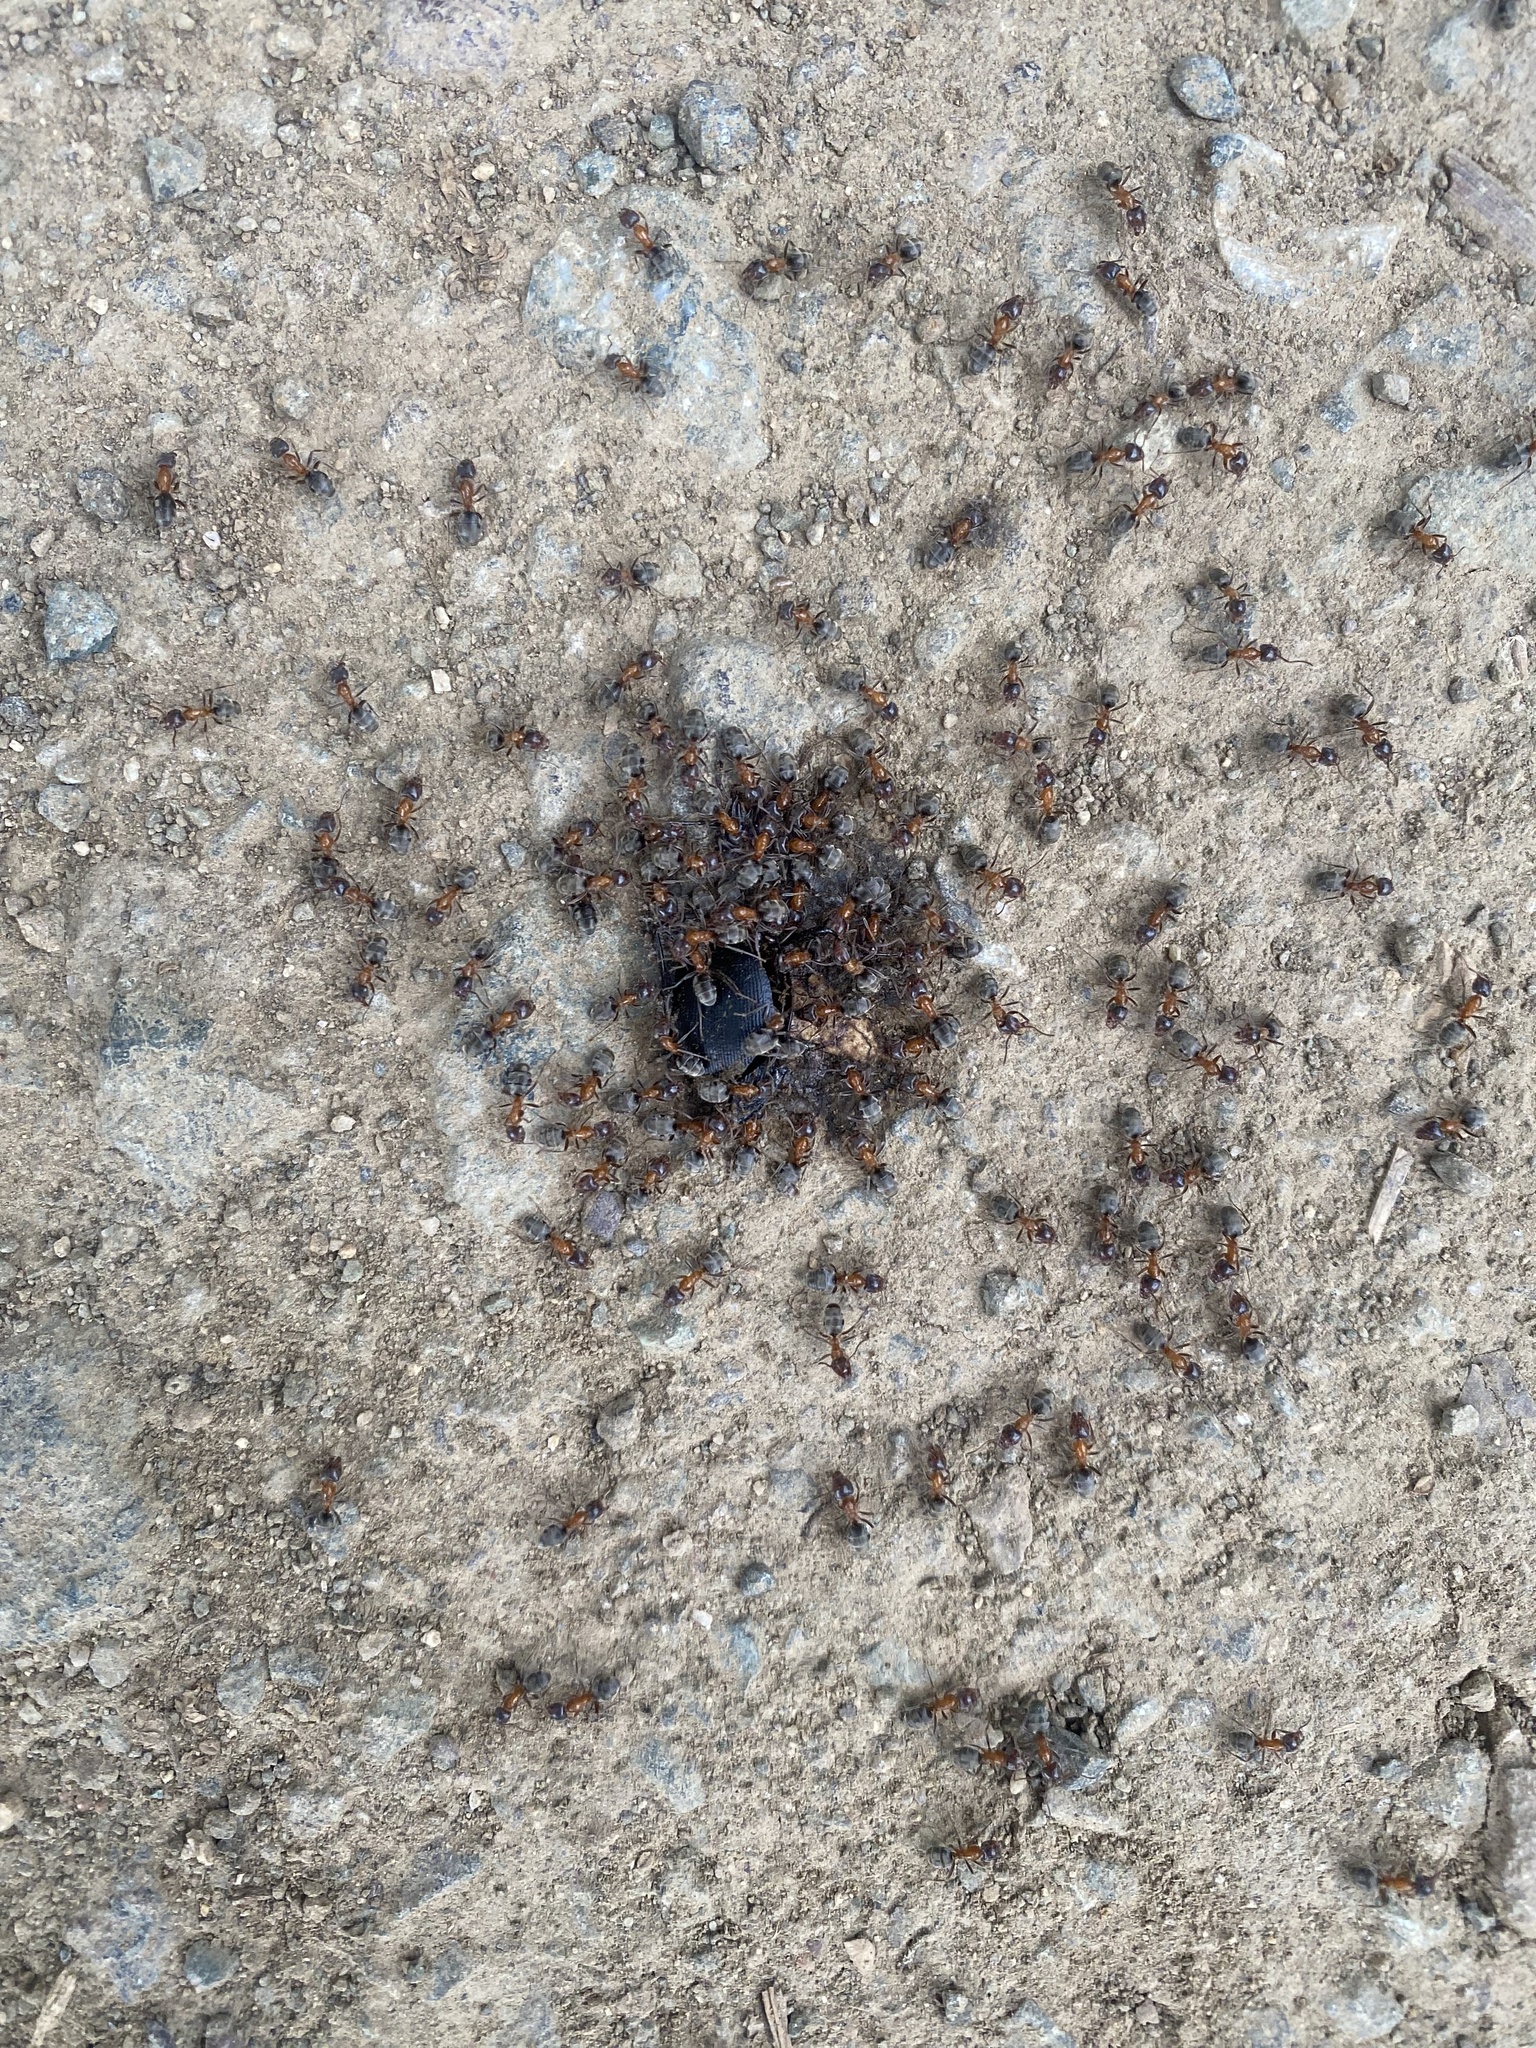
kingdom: Animalia
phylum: Arthropoda
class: Insecta
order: Hymenoptera
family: Formicidae
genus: Liometopum
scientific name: Liometopum occidentale
